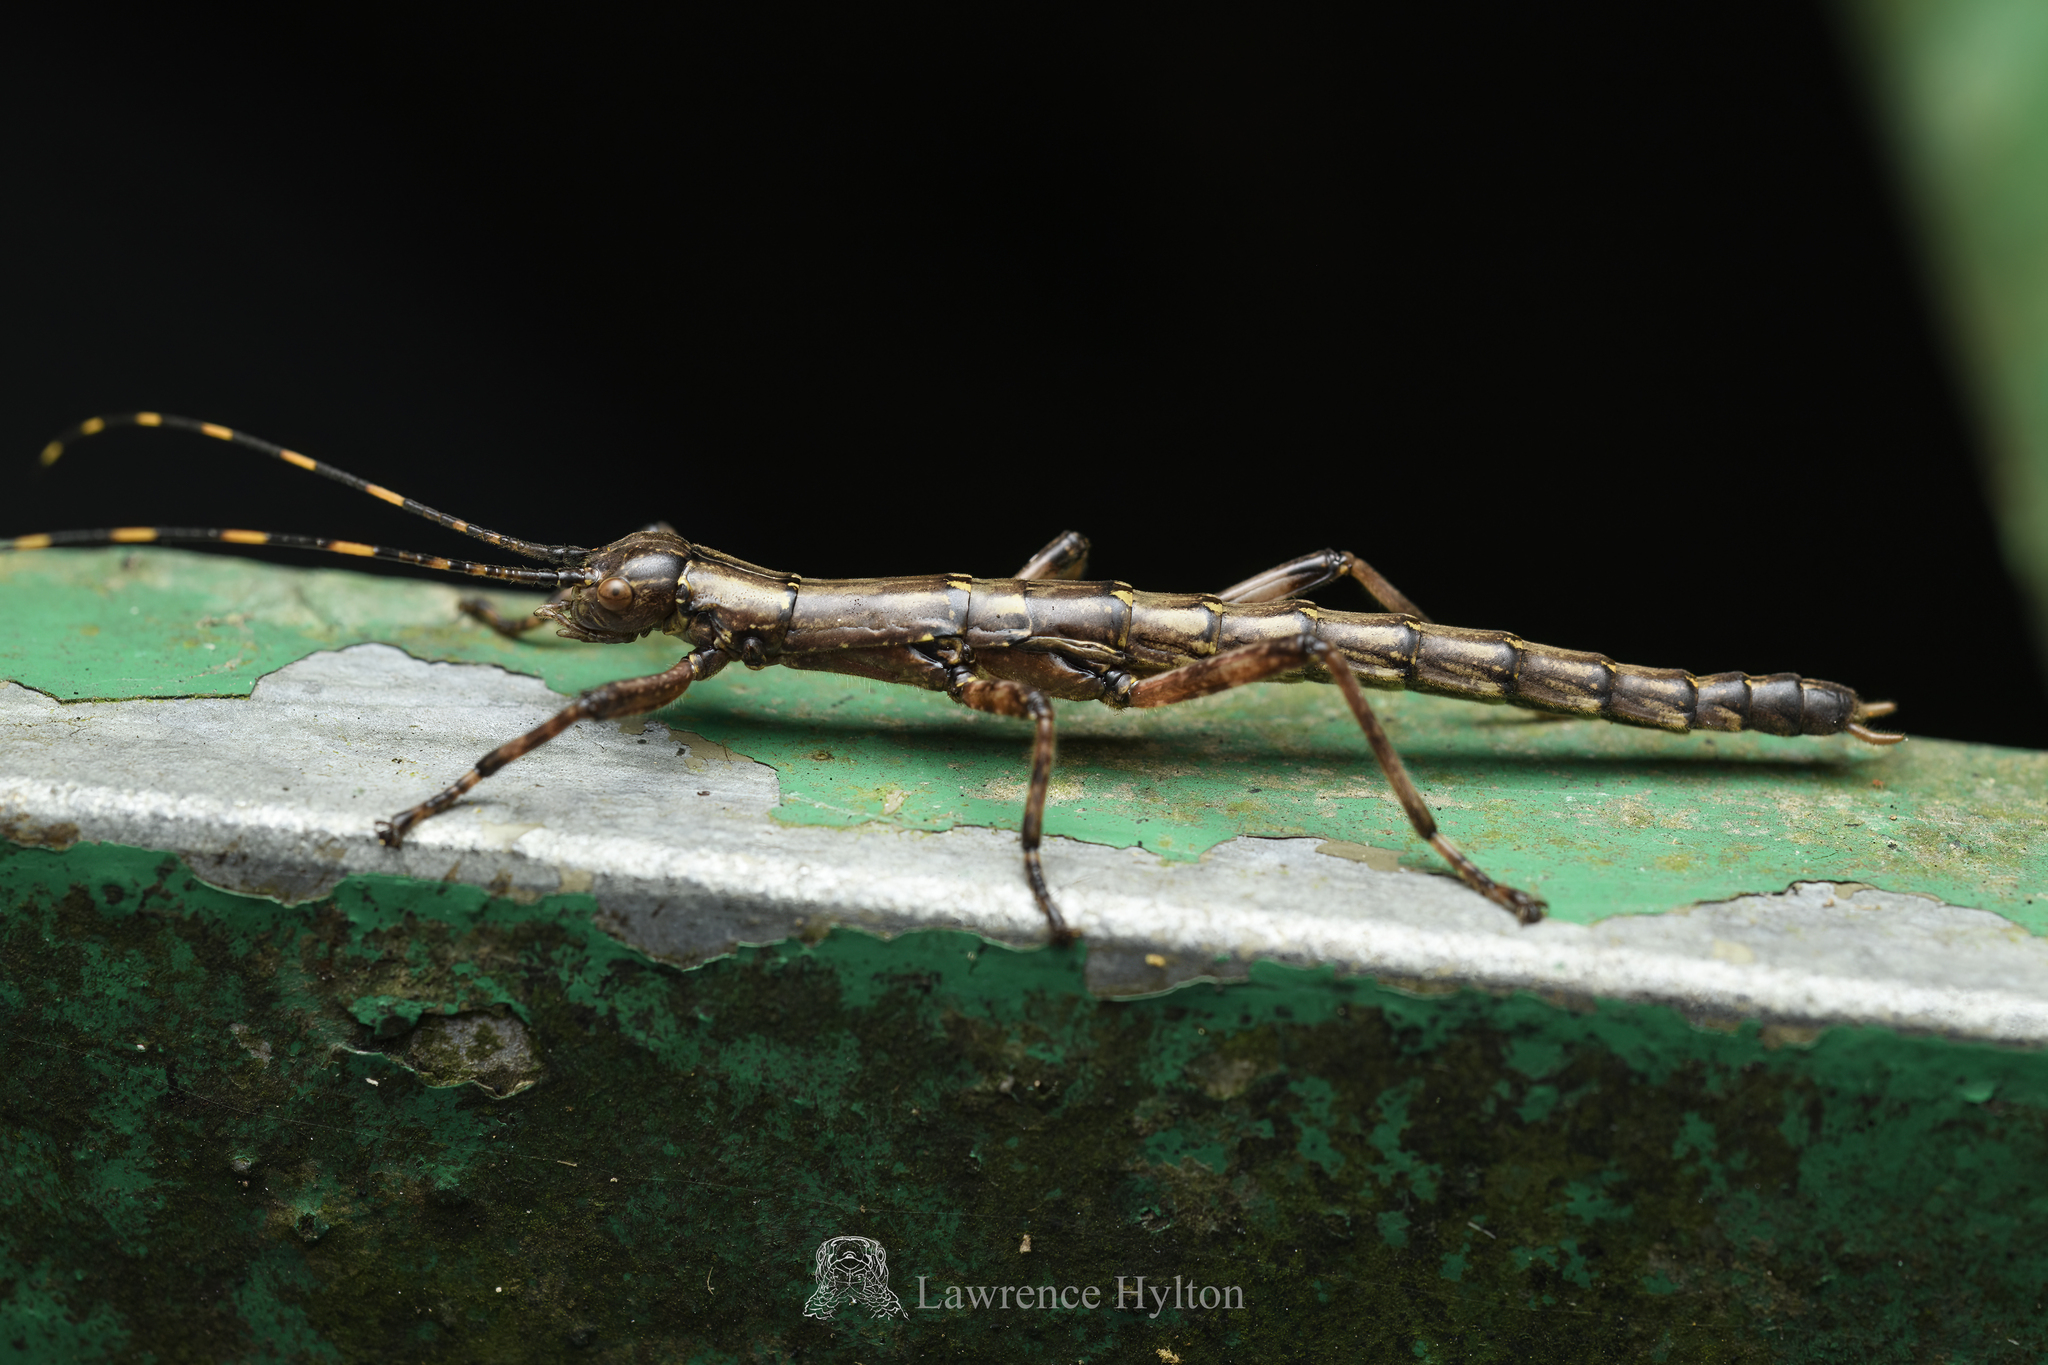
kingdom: Animalia
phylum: Arthropoda
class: Insecta
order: Phasmida
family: Aschiphasmatidae
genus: Dajaca
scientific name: Dajaca napolovi
